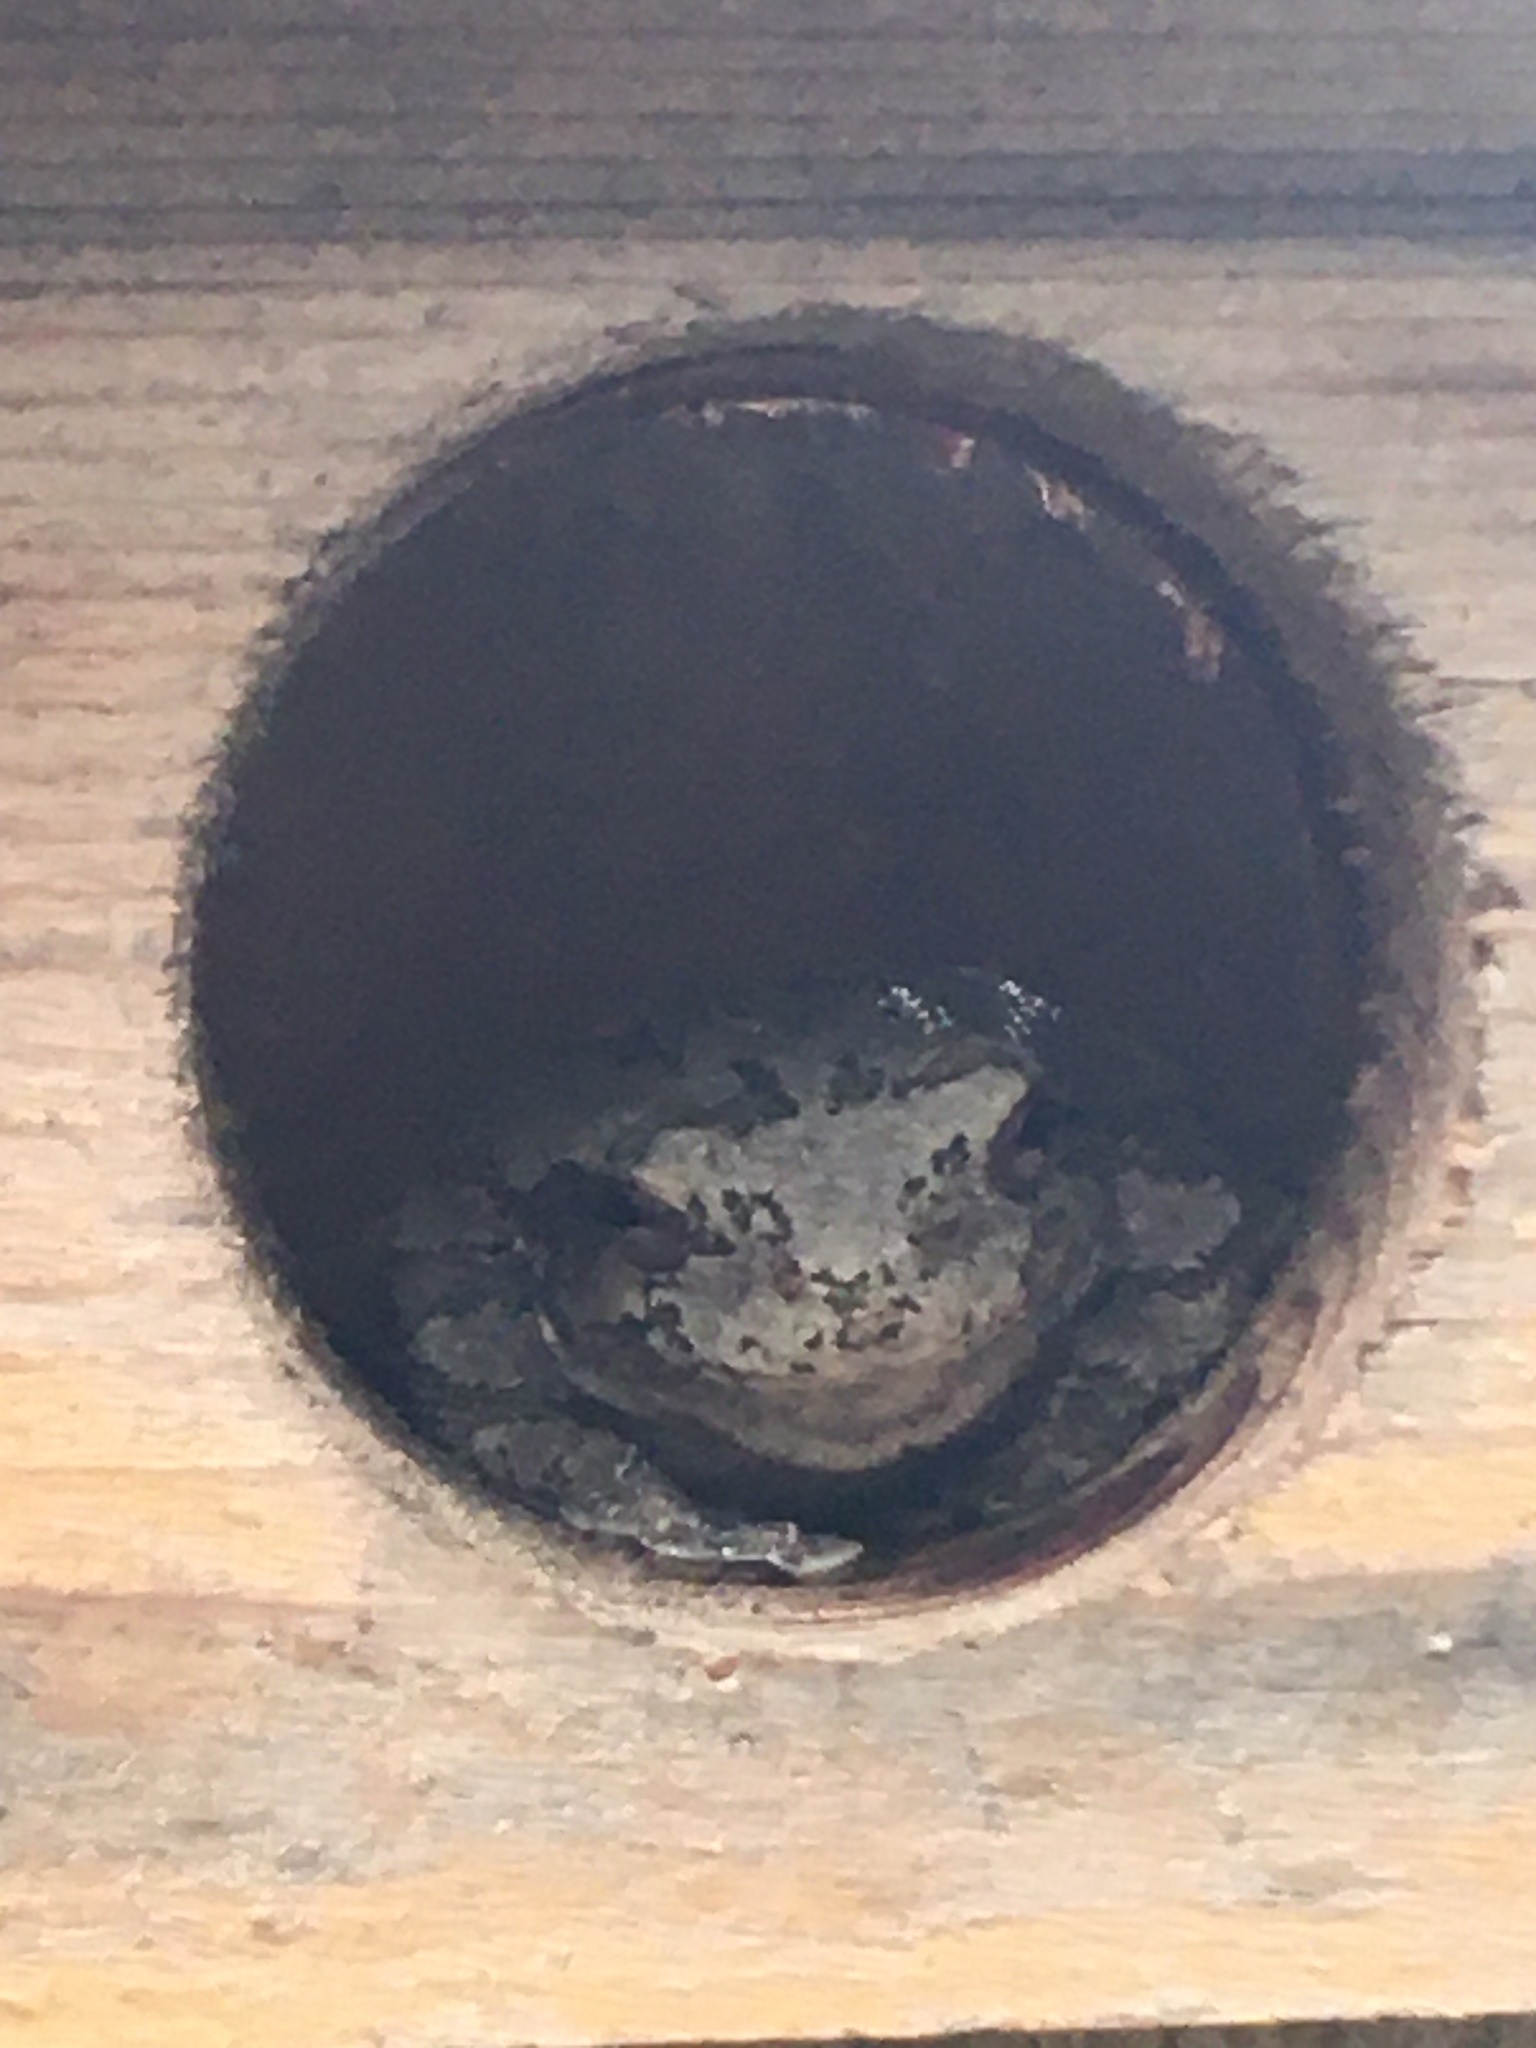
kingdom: Animalia
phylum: Chordata
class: Amphibia
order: Anura
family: Hylidae
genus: Hyla
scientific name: Hyla
